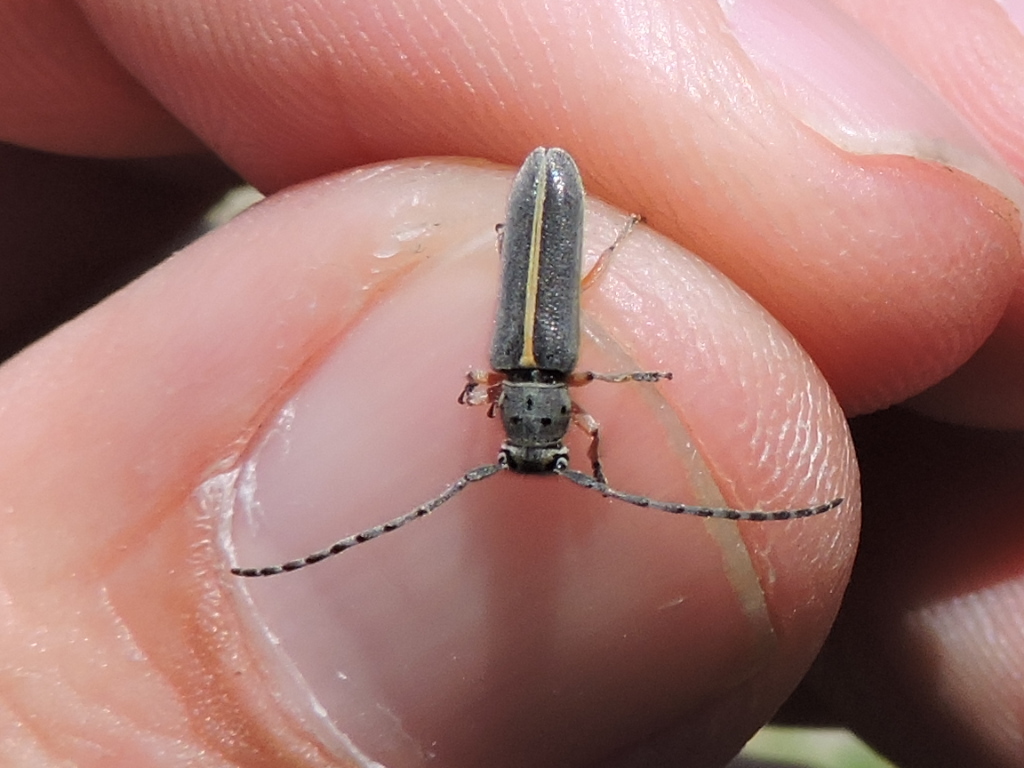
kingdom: Animalia
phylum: Arthropoda
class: Insecta
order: Coleoptera
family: Cerambycidae
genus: Mecas
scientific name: Mecas pergrata
